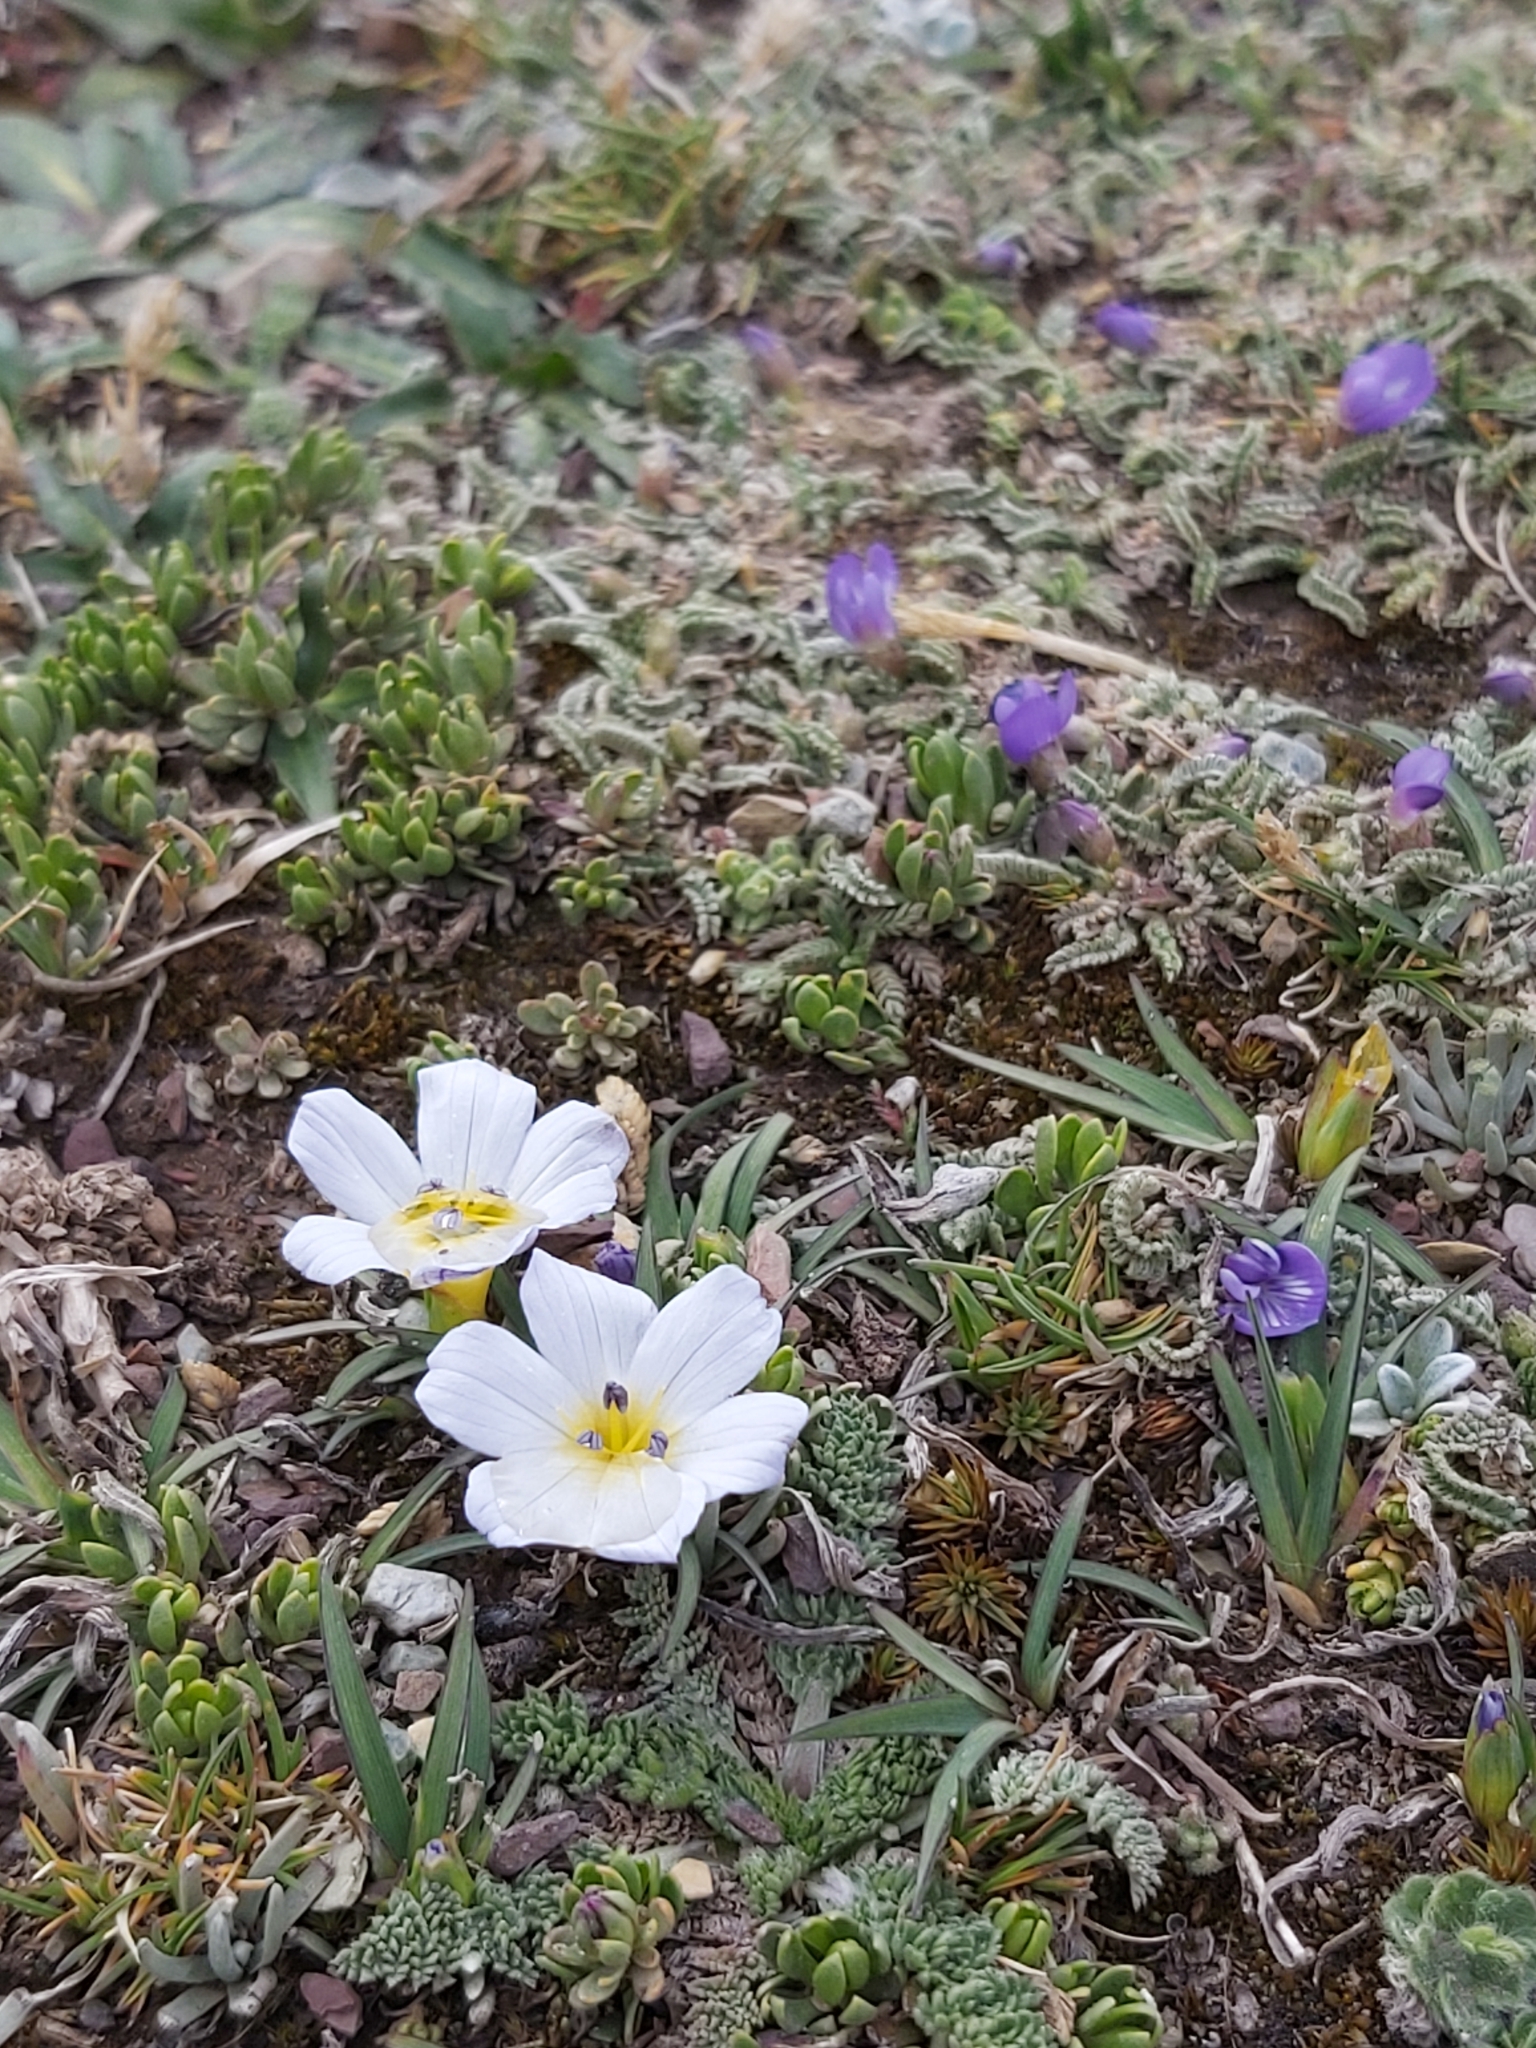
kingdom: Plantae
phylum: Tracheophyta
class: Liliopsida
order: Asparagales
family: Iridaceae
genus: Olsynium
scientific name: Olsynium acaule
